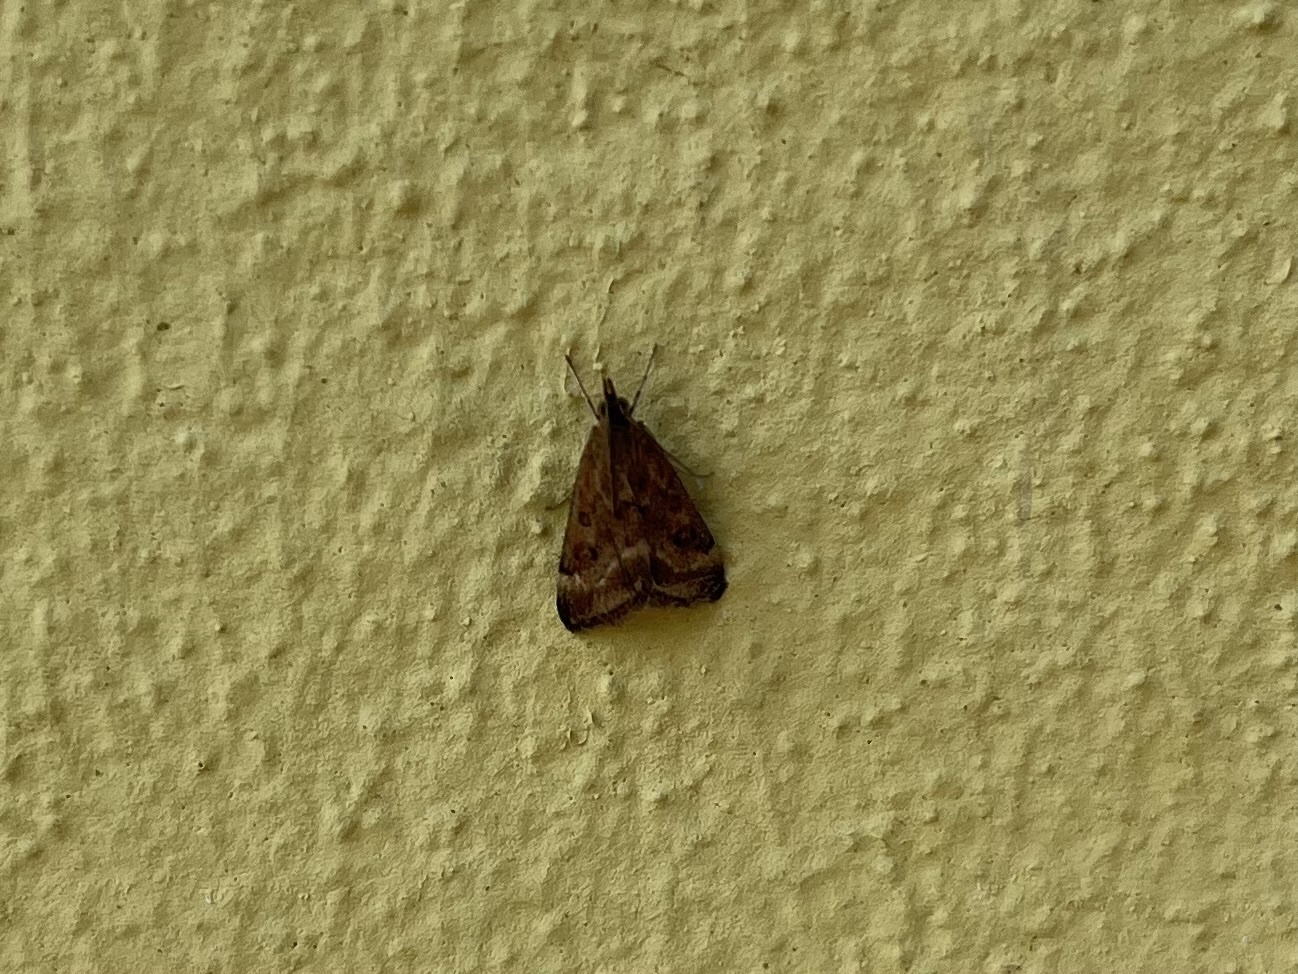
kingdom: Animalia
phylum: Arthropoda
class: Insecta
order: Lepidoptera
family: Crambidae
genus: Pyrausta
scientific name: Pyrausta despicata
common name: Straw-barred pearl
